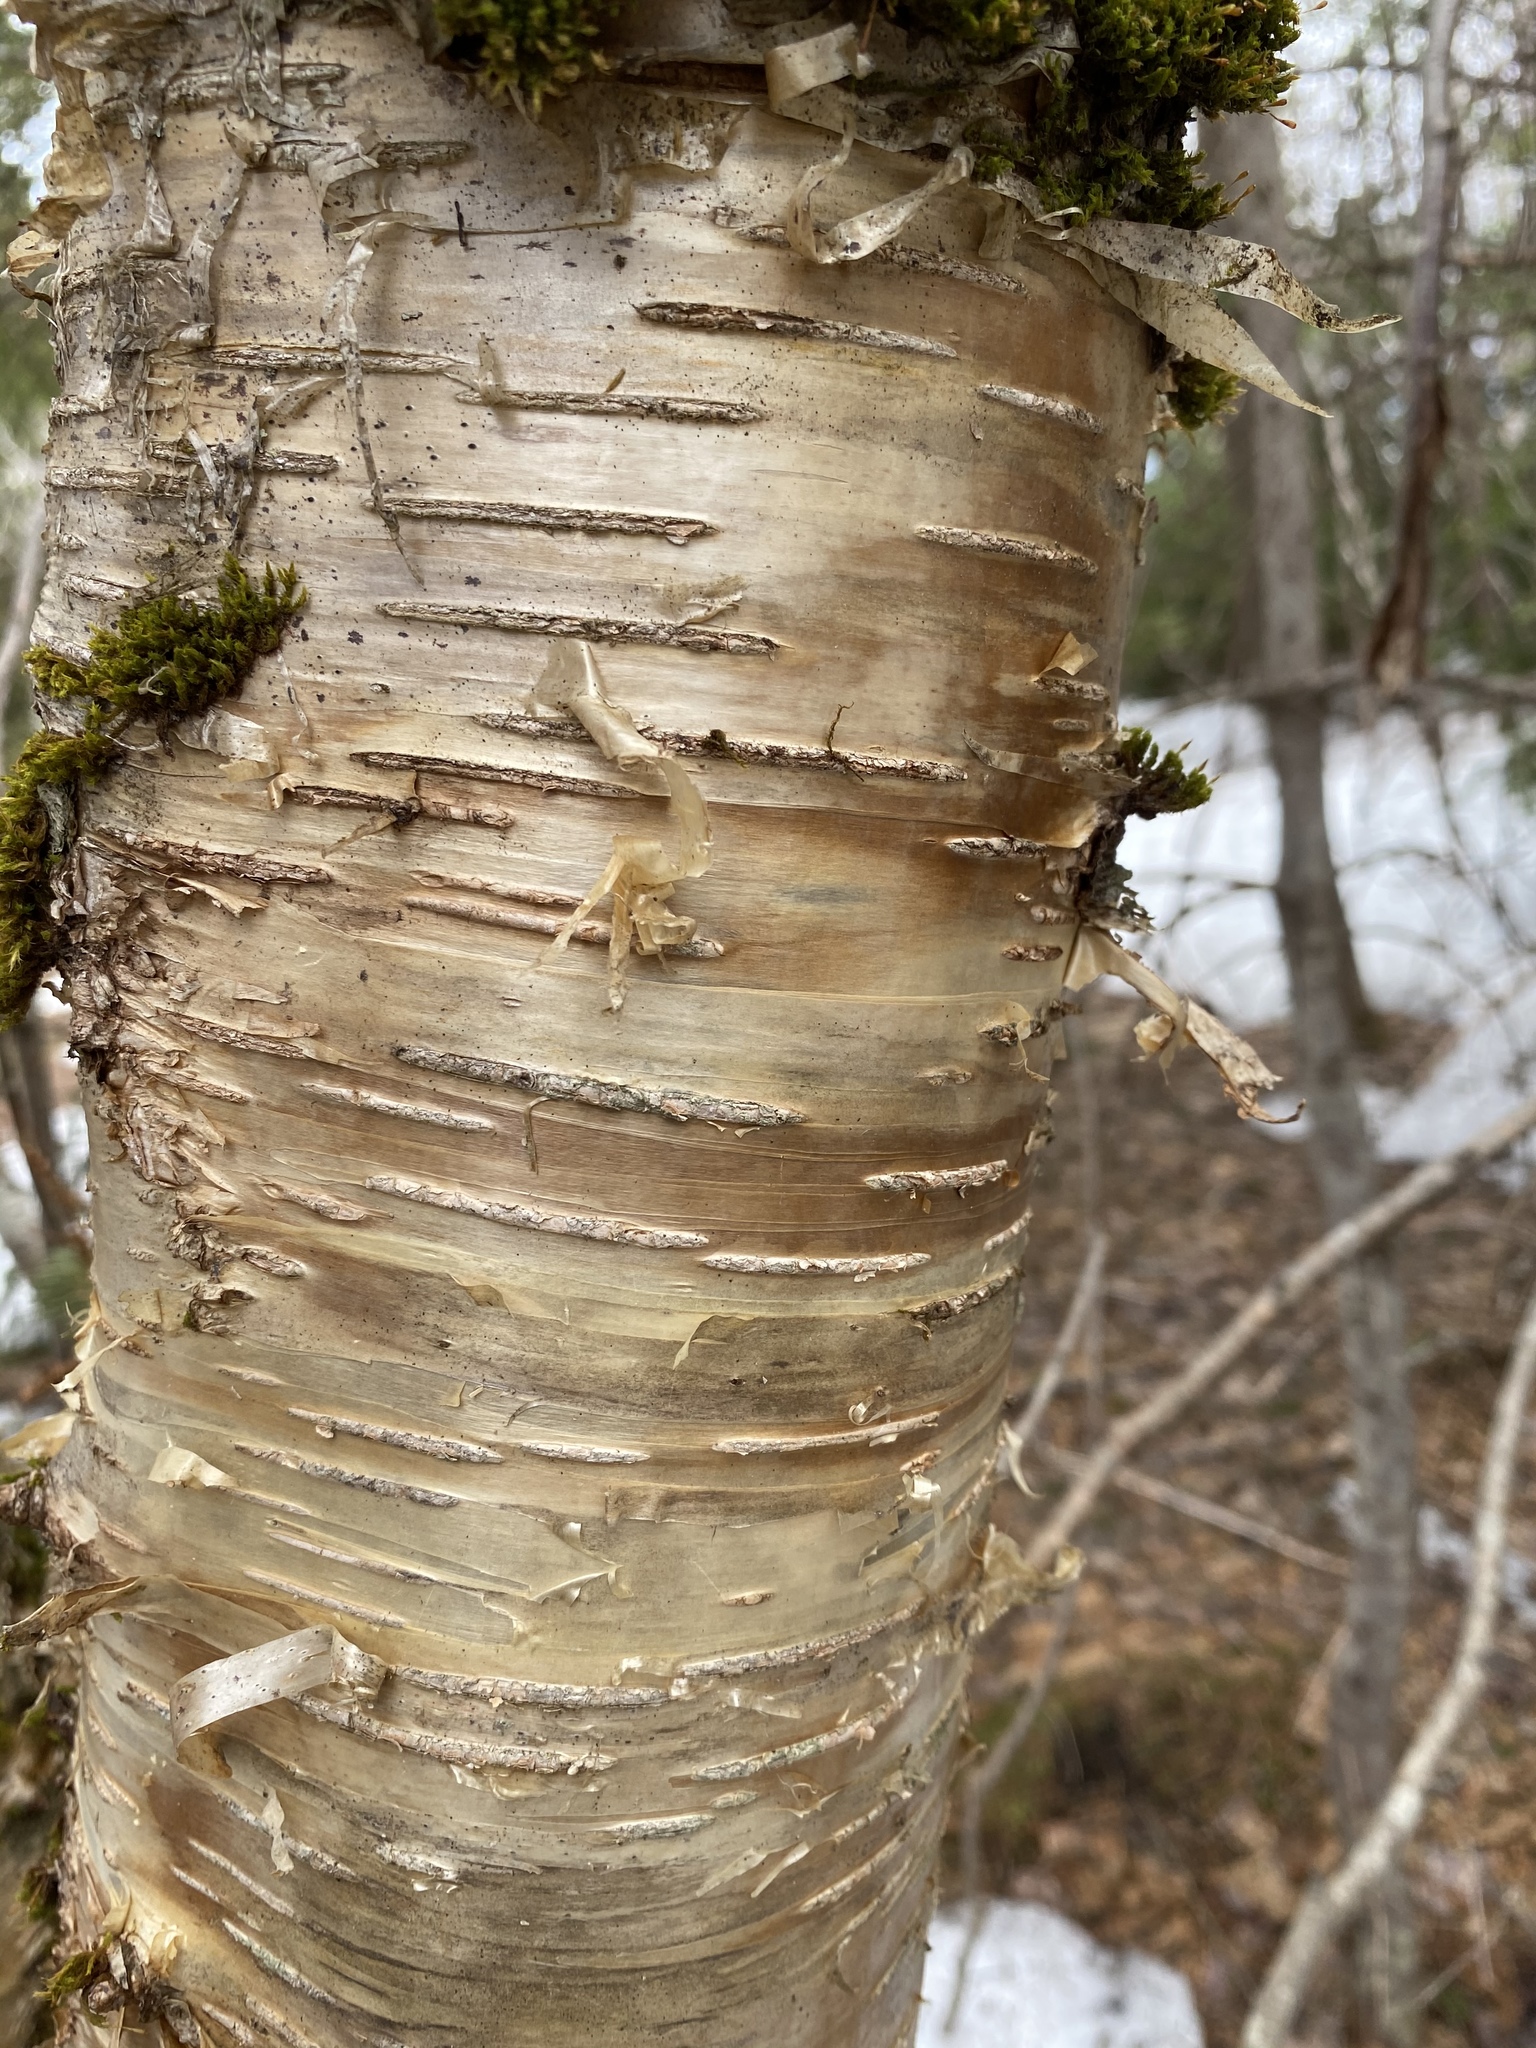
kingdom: Plantae
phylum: Tracheophyta
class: Magnoliopsida
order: Fagales
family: Betulaceae
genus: Betula
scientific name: Betula alleghaniensis
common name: Yellow birch
